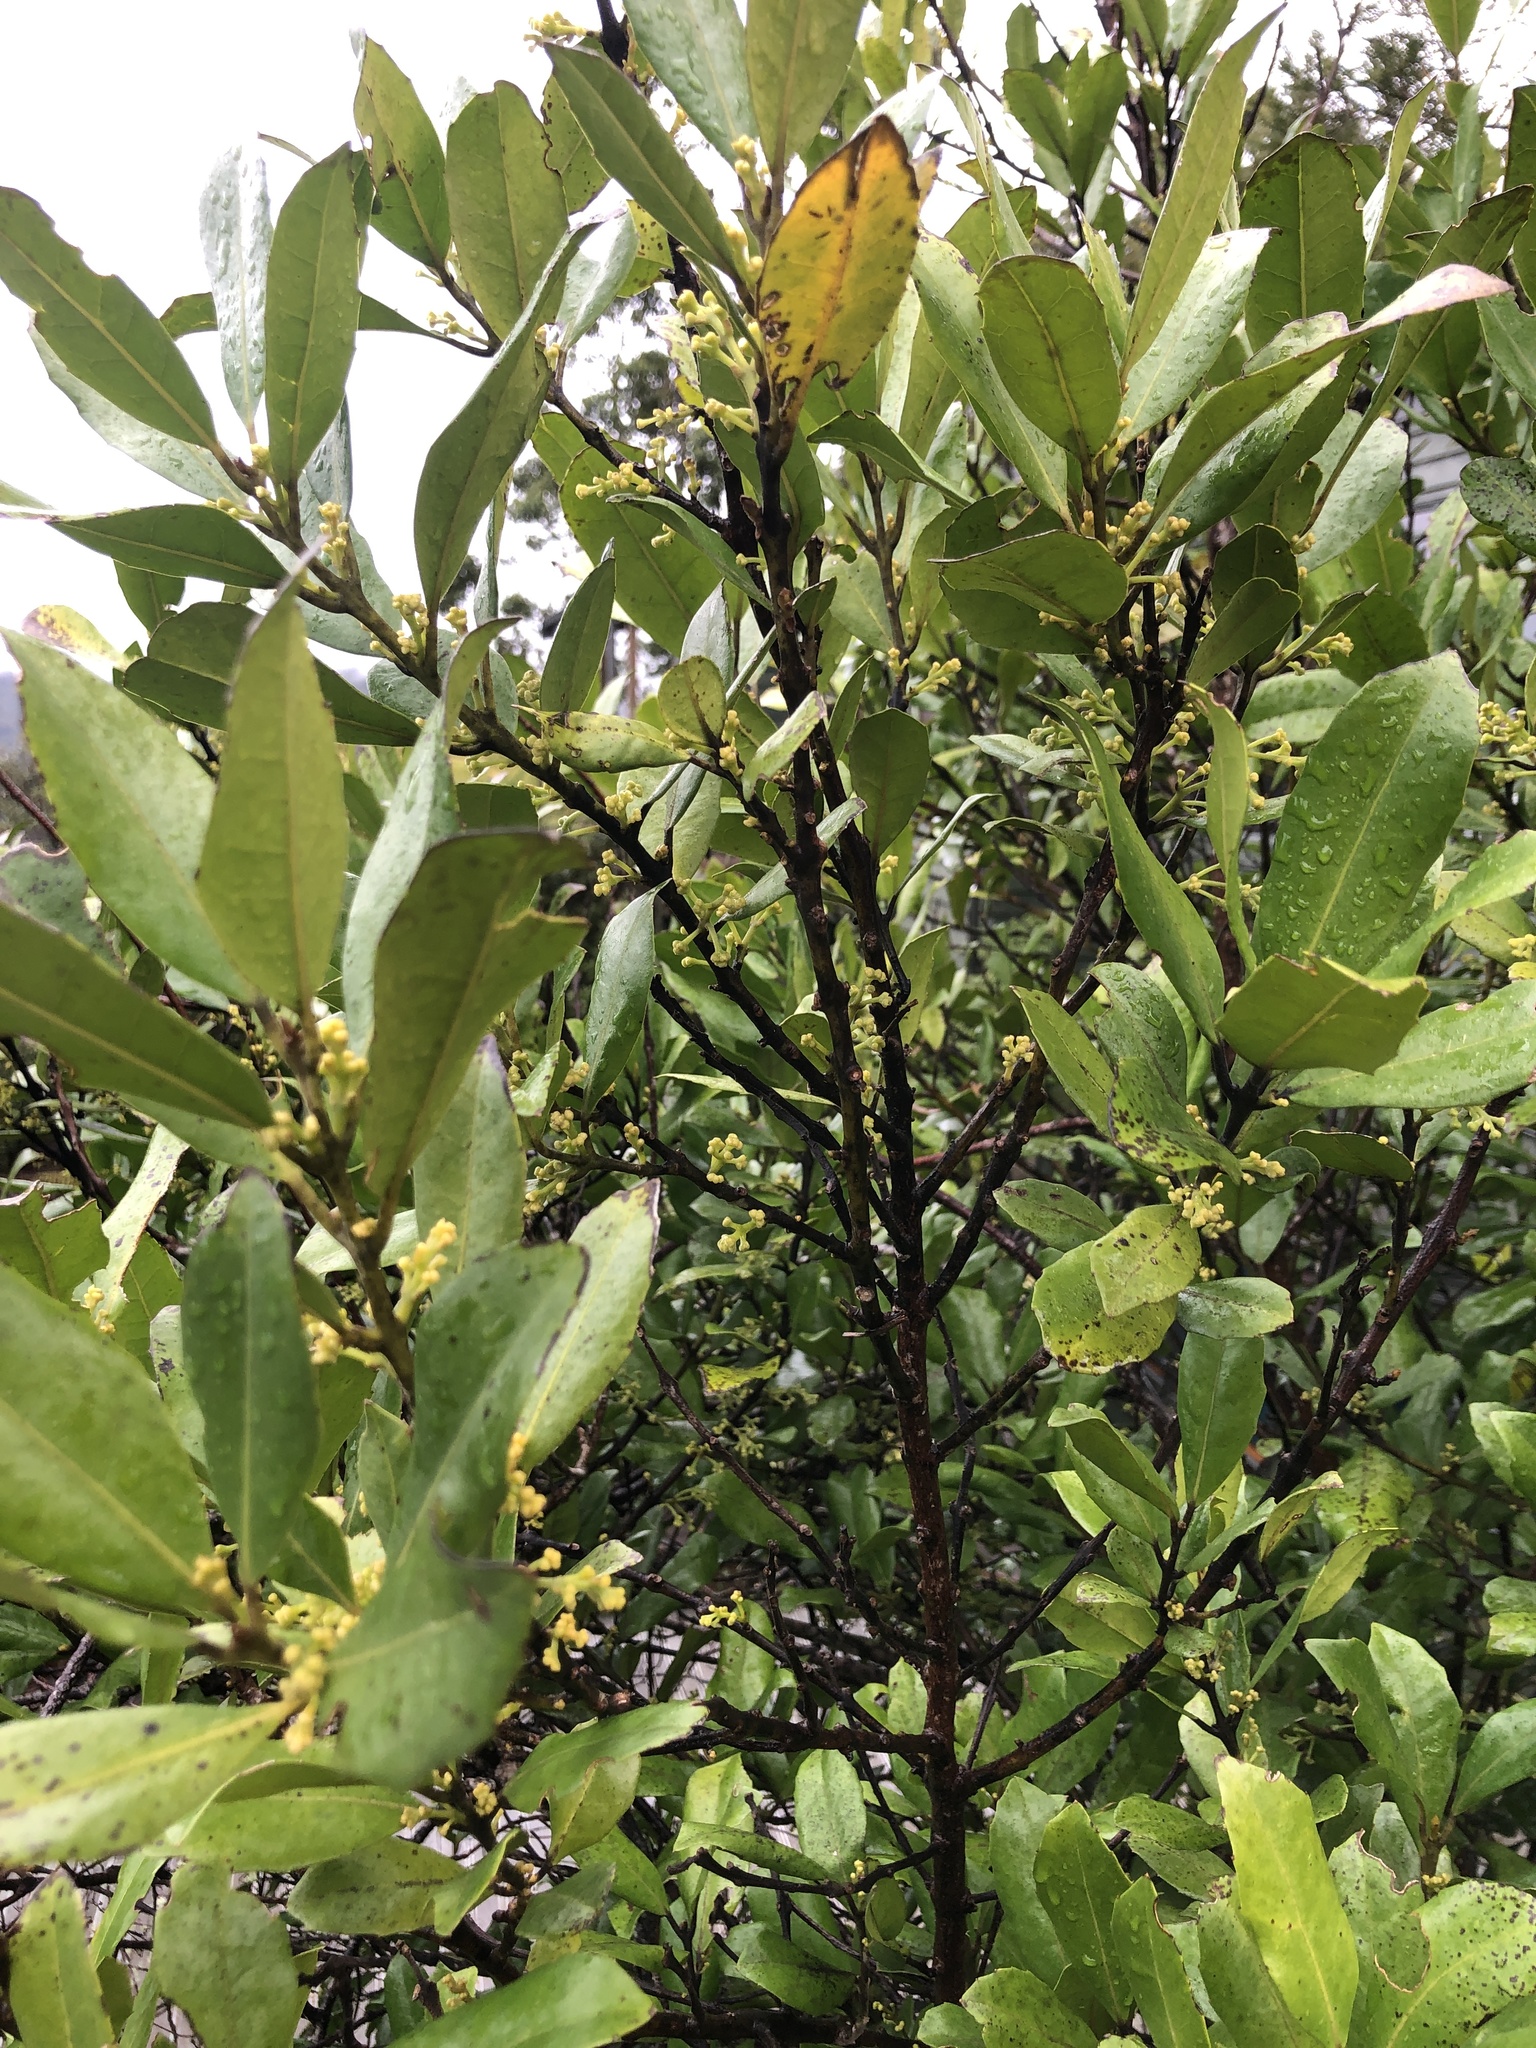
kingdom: Plantae
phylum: Tracheophyta
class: Magnoliopsida
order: Laurales
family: Monimiaceae
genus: Hedycarya
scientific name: Hedycarya arborea
